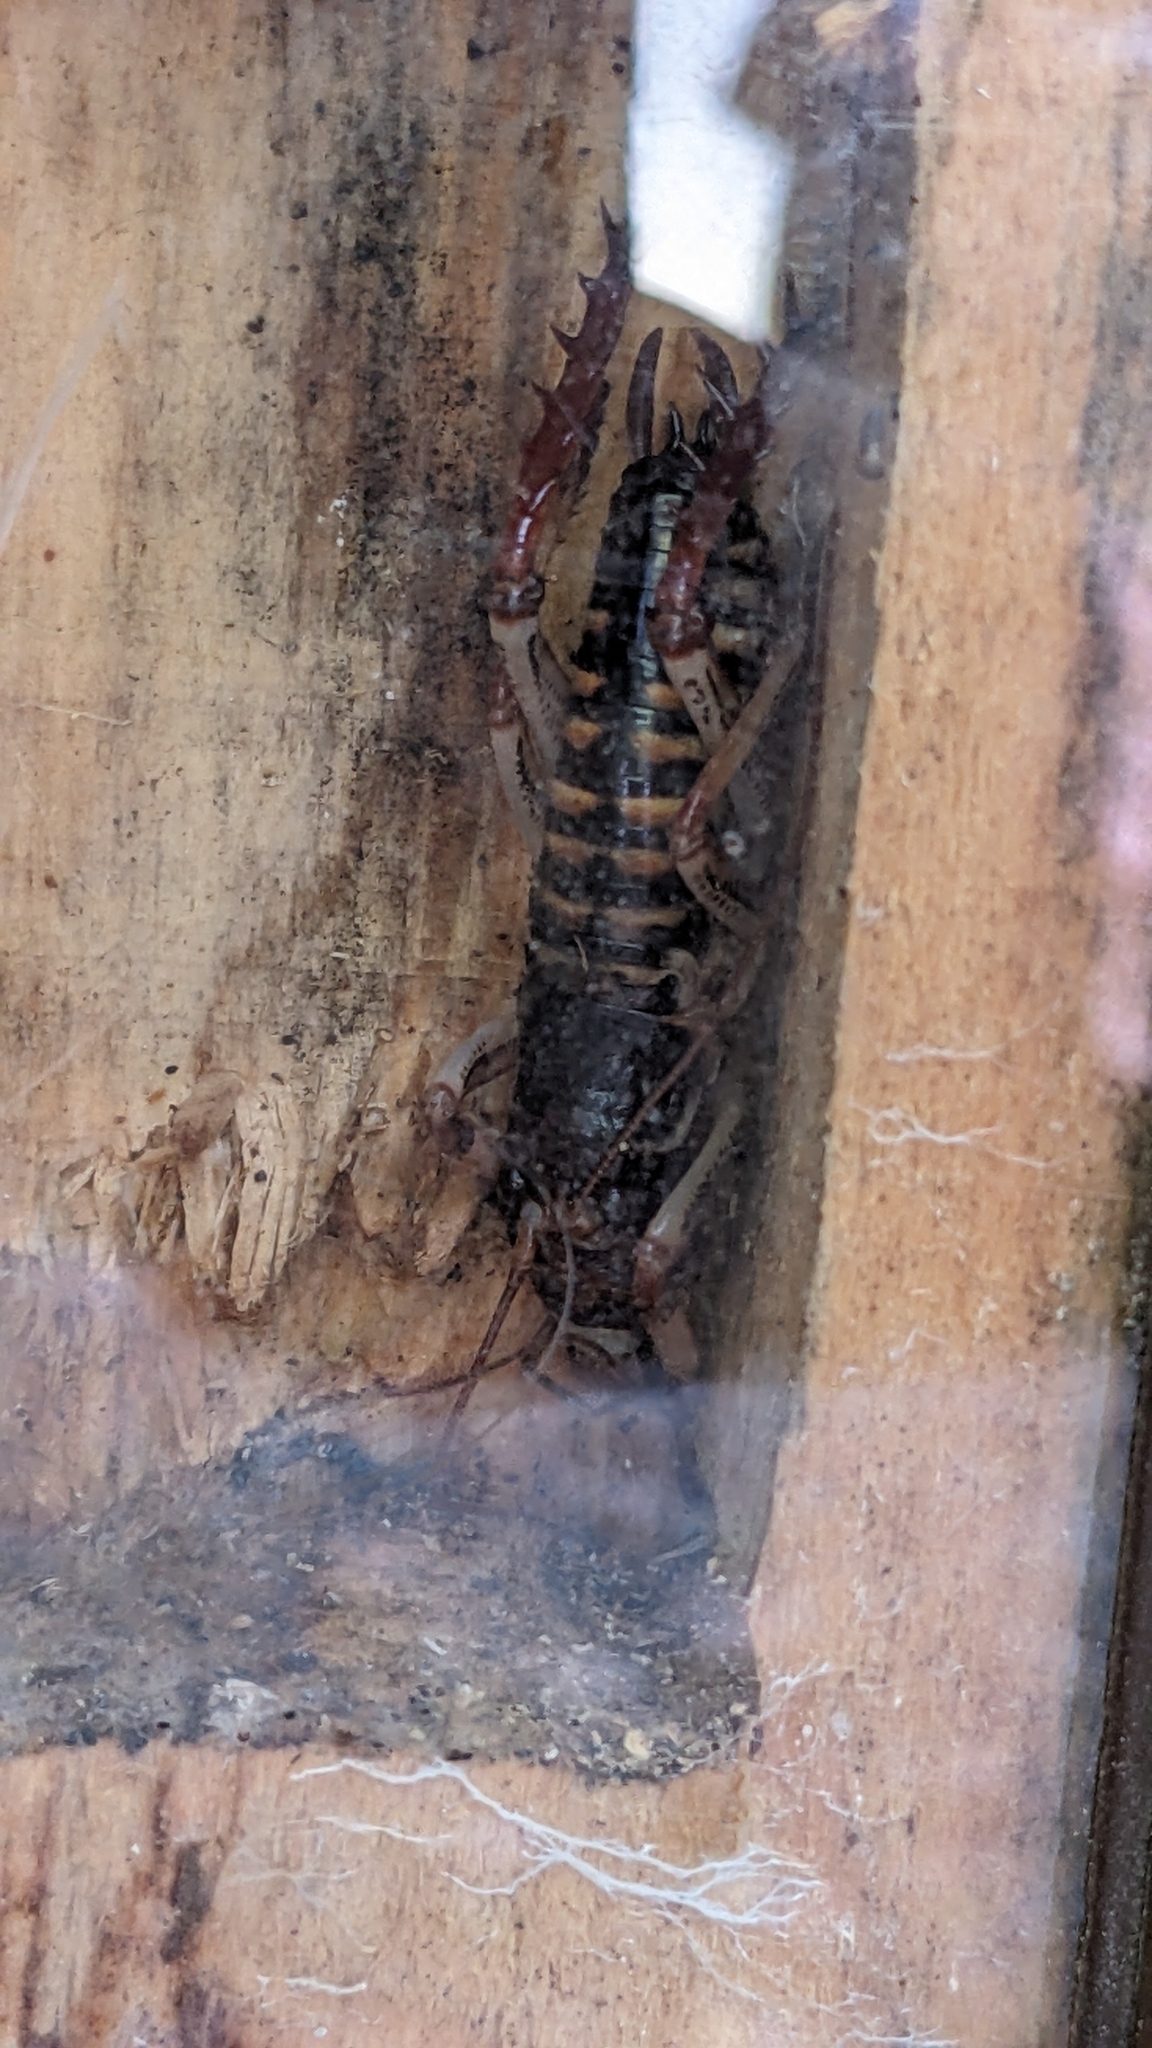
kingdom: Animalia
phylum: Arthropoda
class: Insecta
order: Orthoptera
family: Anostostomatidae
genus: Hemideina
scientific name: Hemideina crassidens
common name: Wellington tree weta
